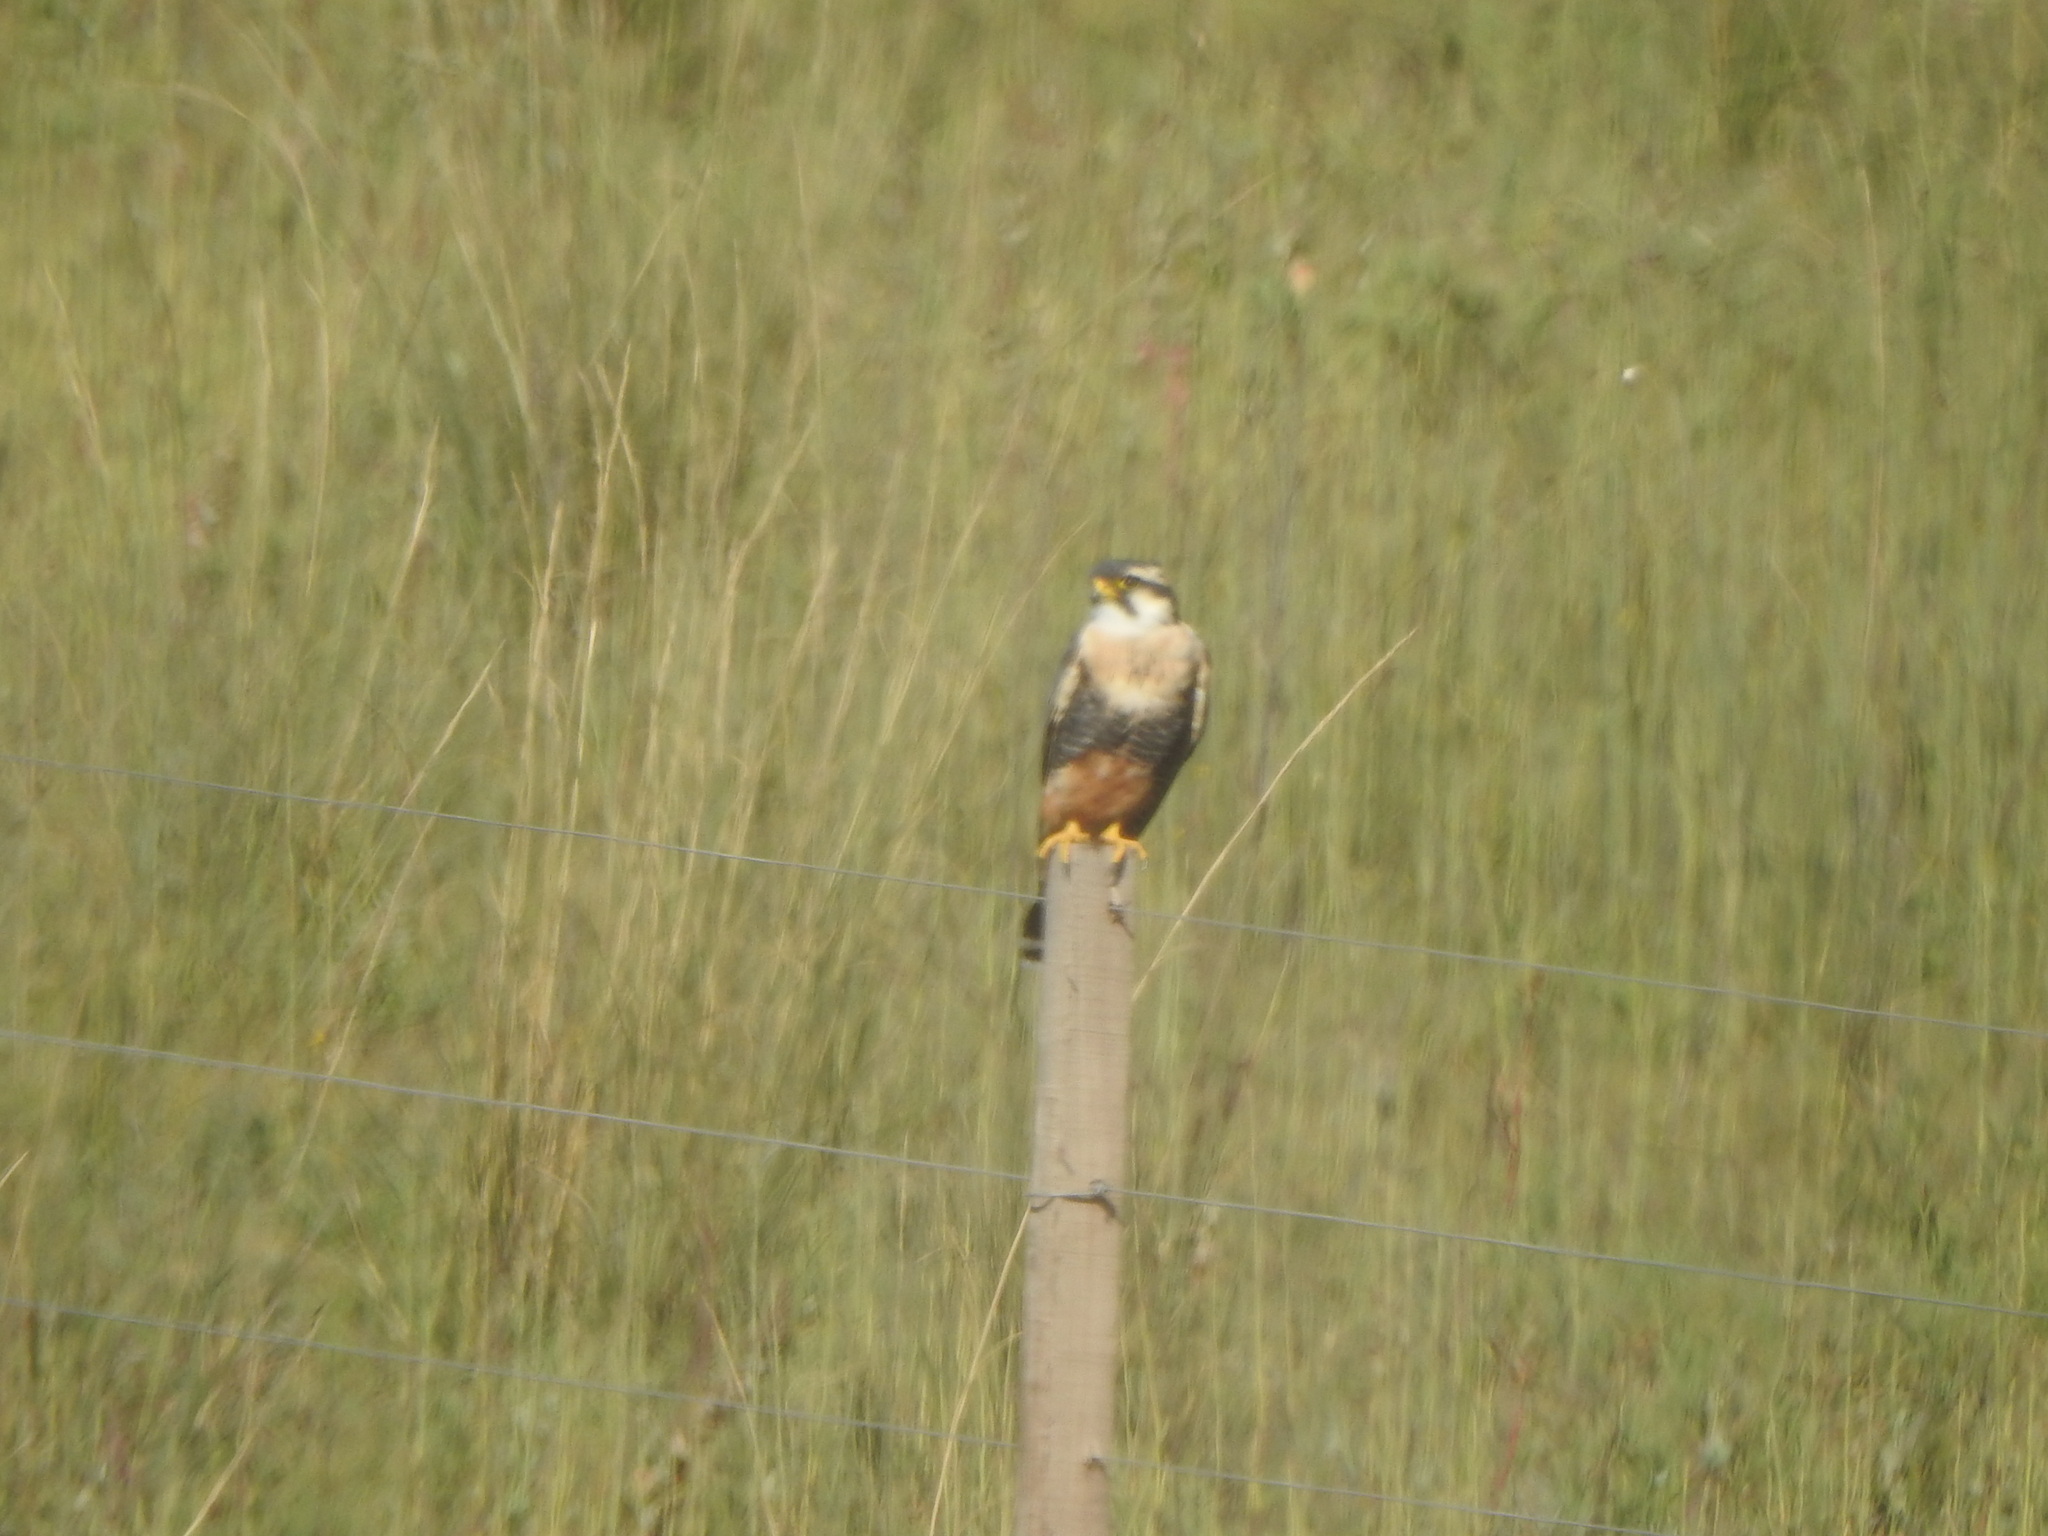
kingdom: Animalia
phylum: Chordata
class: Aves
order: Falconiformes
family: Falconidae
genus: Falco
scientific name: Falco femoralis
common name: Aplomado falcon
